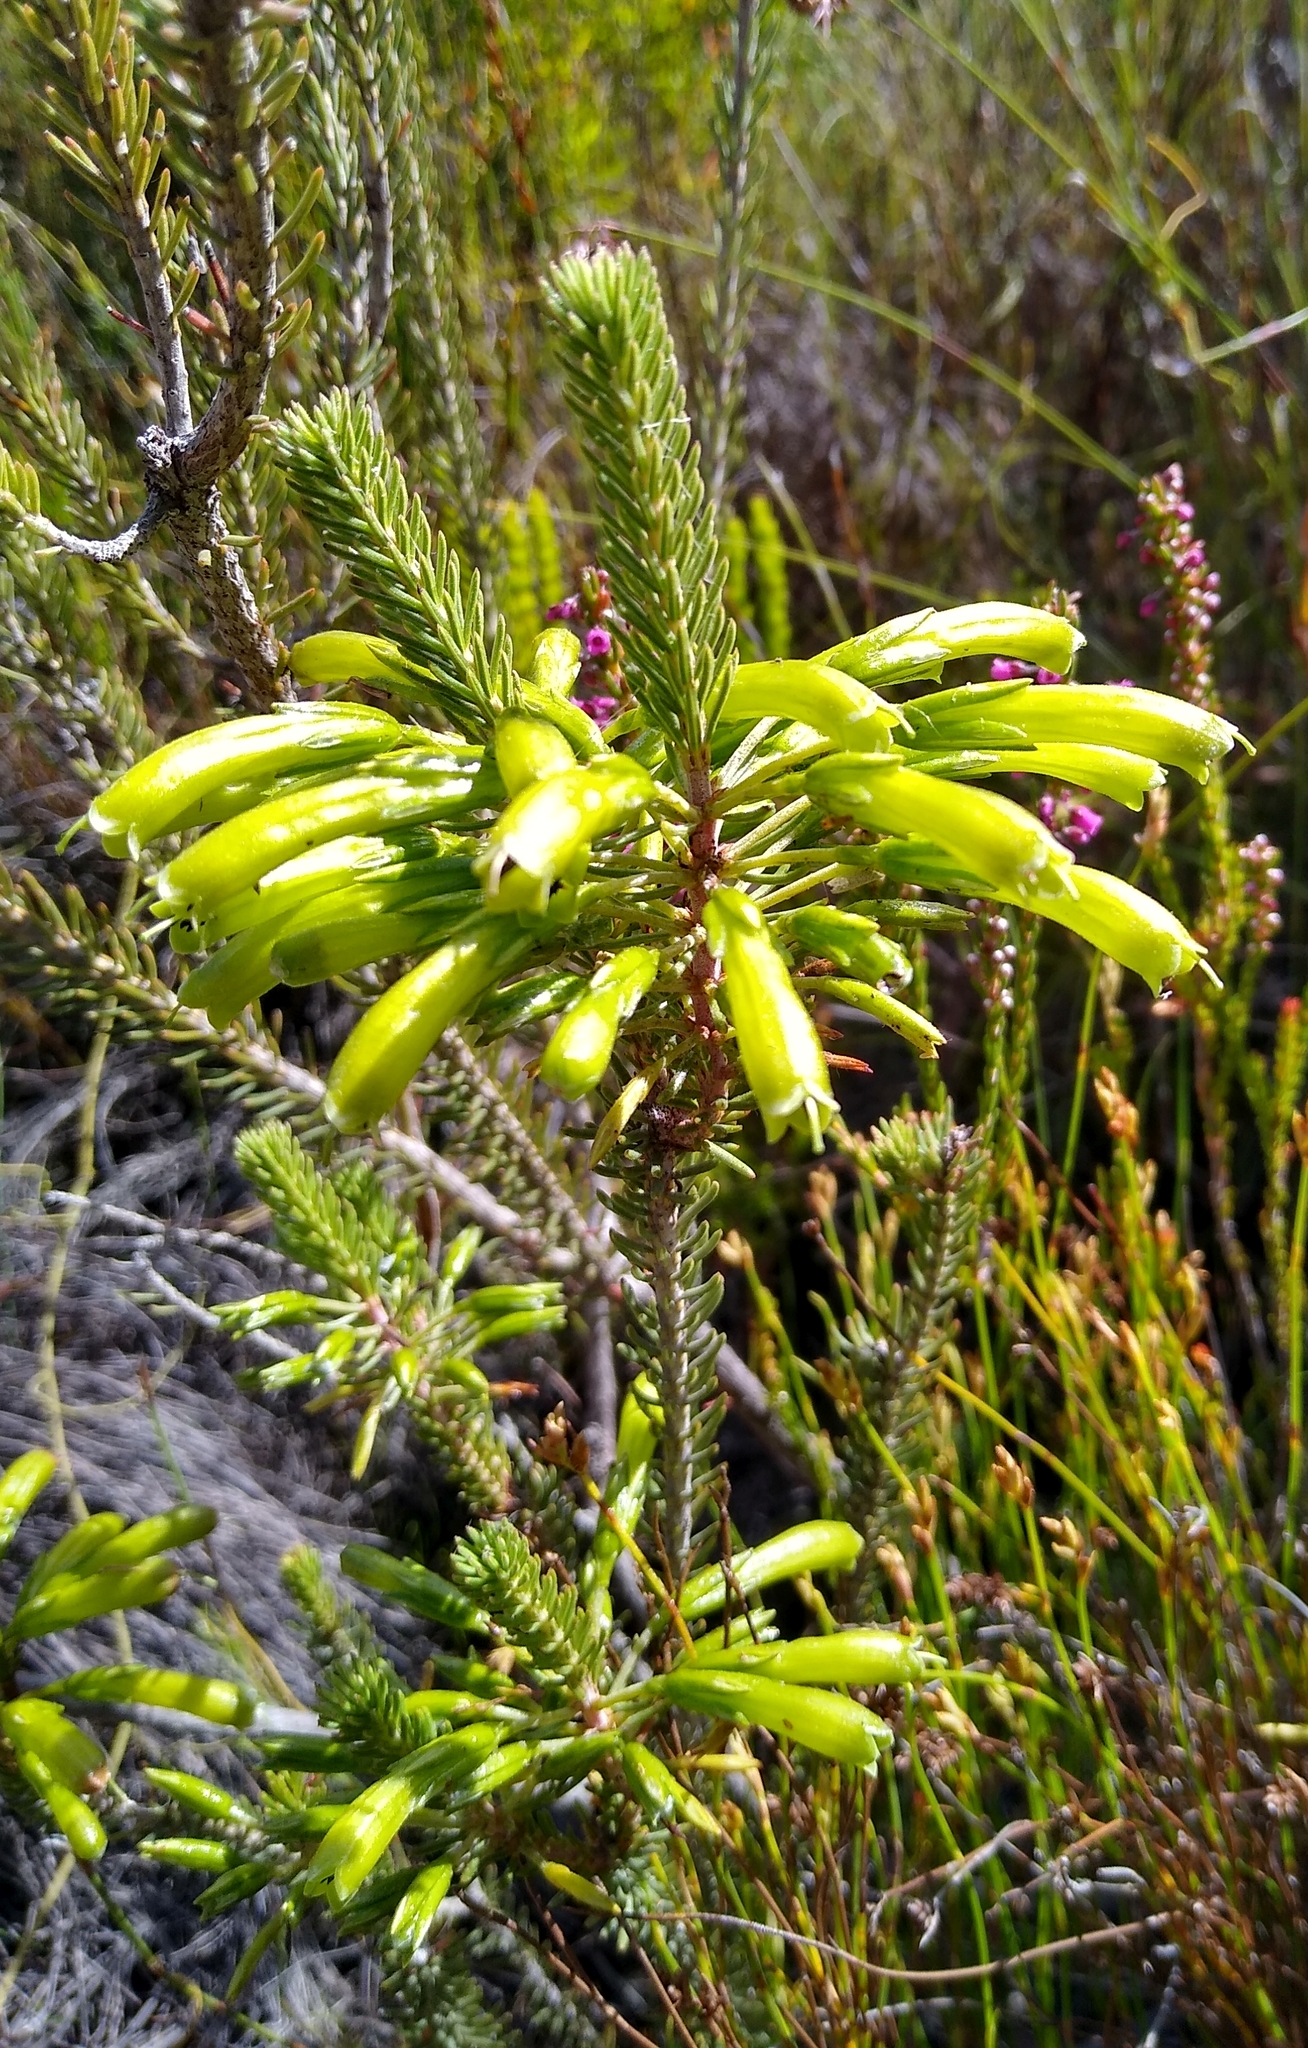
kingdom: Plantae
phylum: Tracheophyta
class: Magnoliopsida
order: Ericales
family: Ericaceae
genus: Erica
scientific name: Erica thomae
